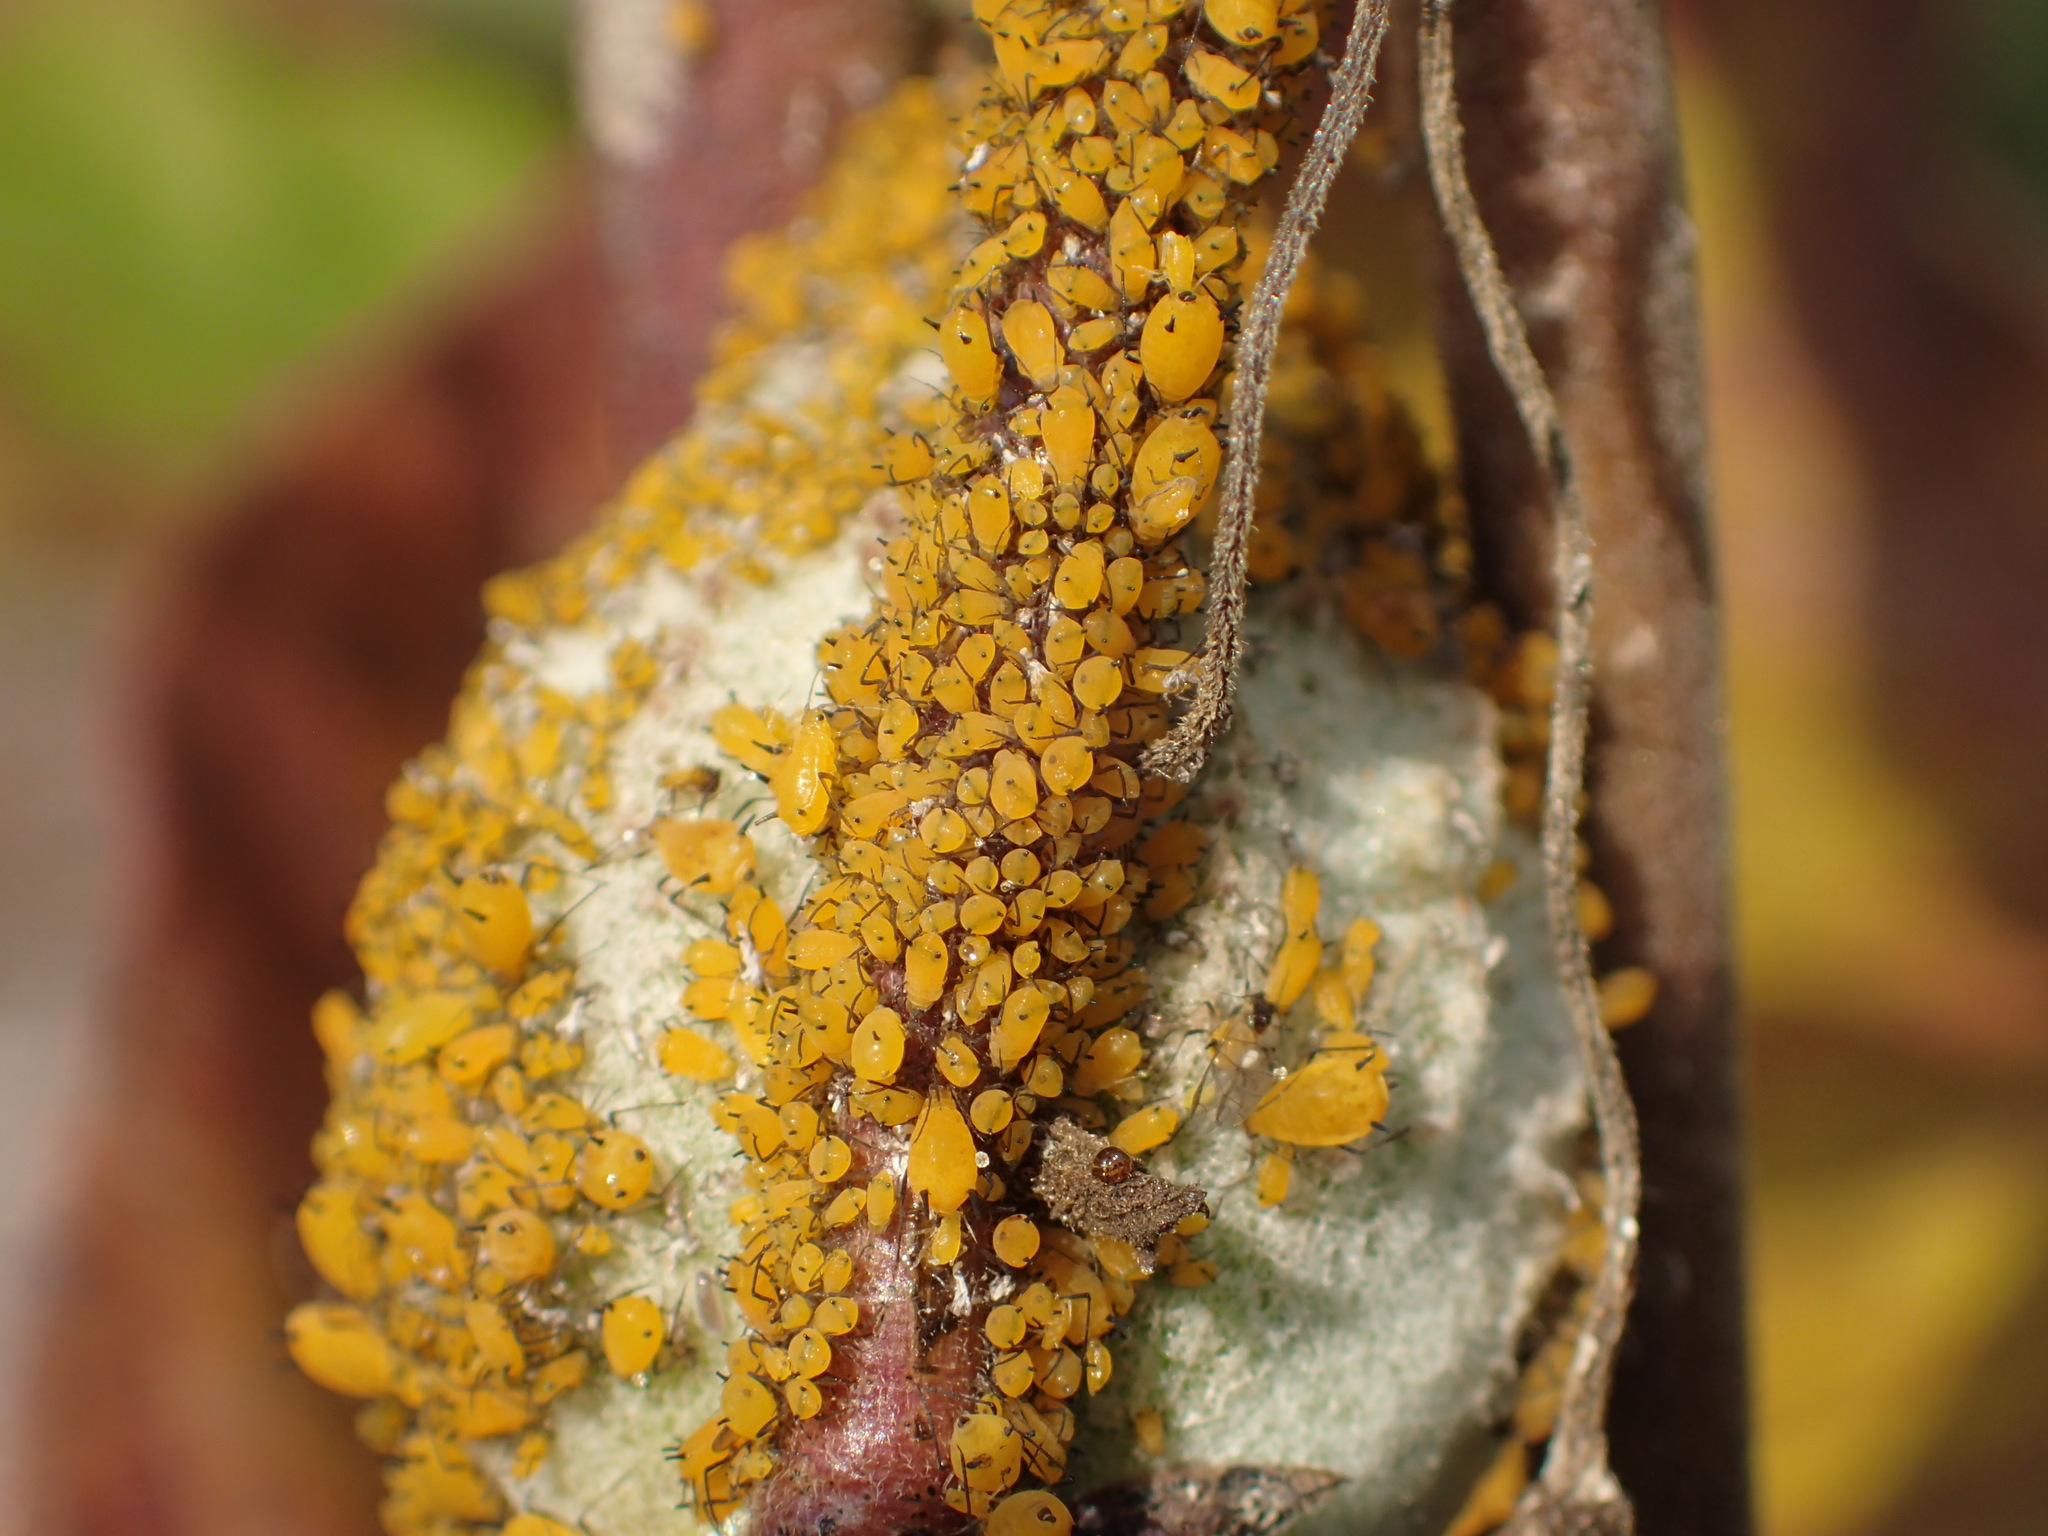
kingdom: Animalia
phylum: Arthropoda
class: Insecta
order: Hemiptera
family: Aphididae
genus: Aphis
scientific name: Aphis nerii
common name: Oleander aphid
